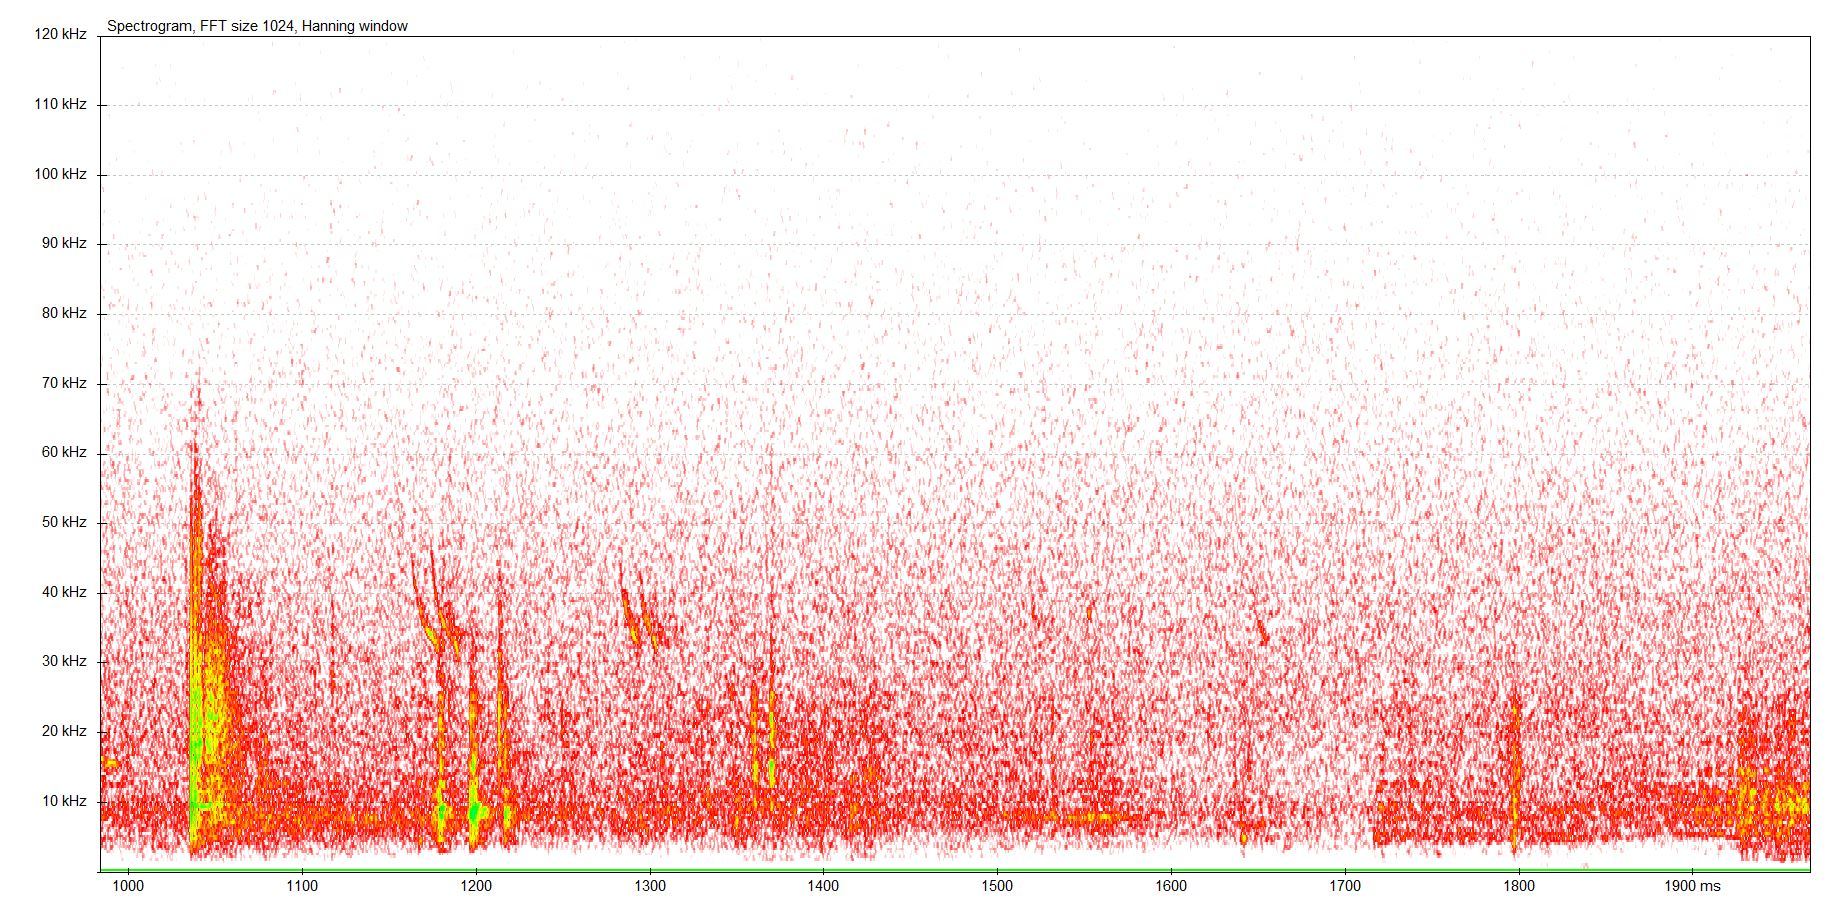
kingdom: Animalia
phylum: Chordata
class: Mammalia
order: Chiroptera
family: Vespertilionidae
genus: Myotis
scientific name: Myotis dasycneme
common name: Pond bat
